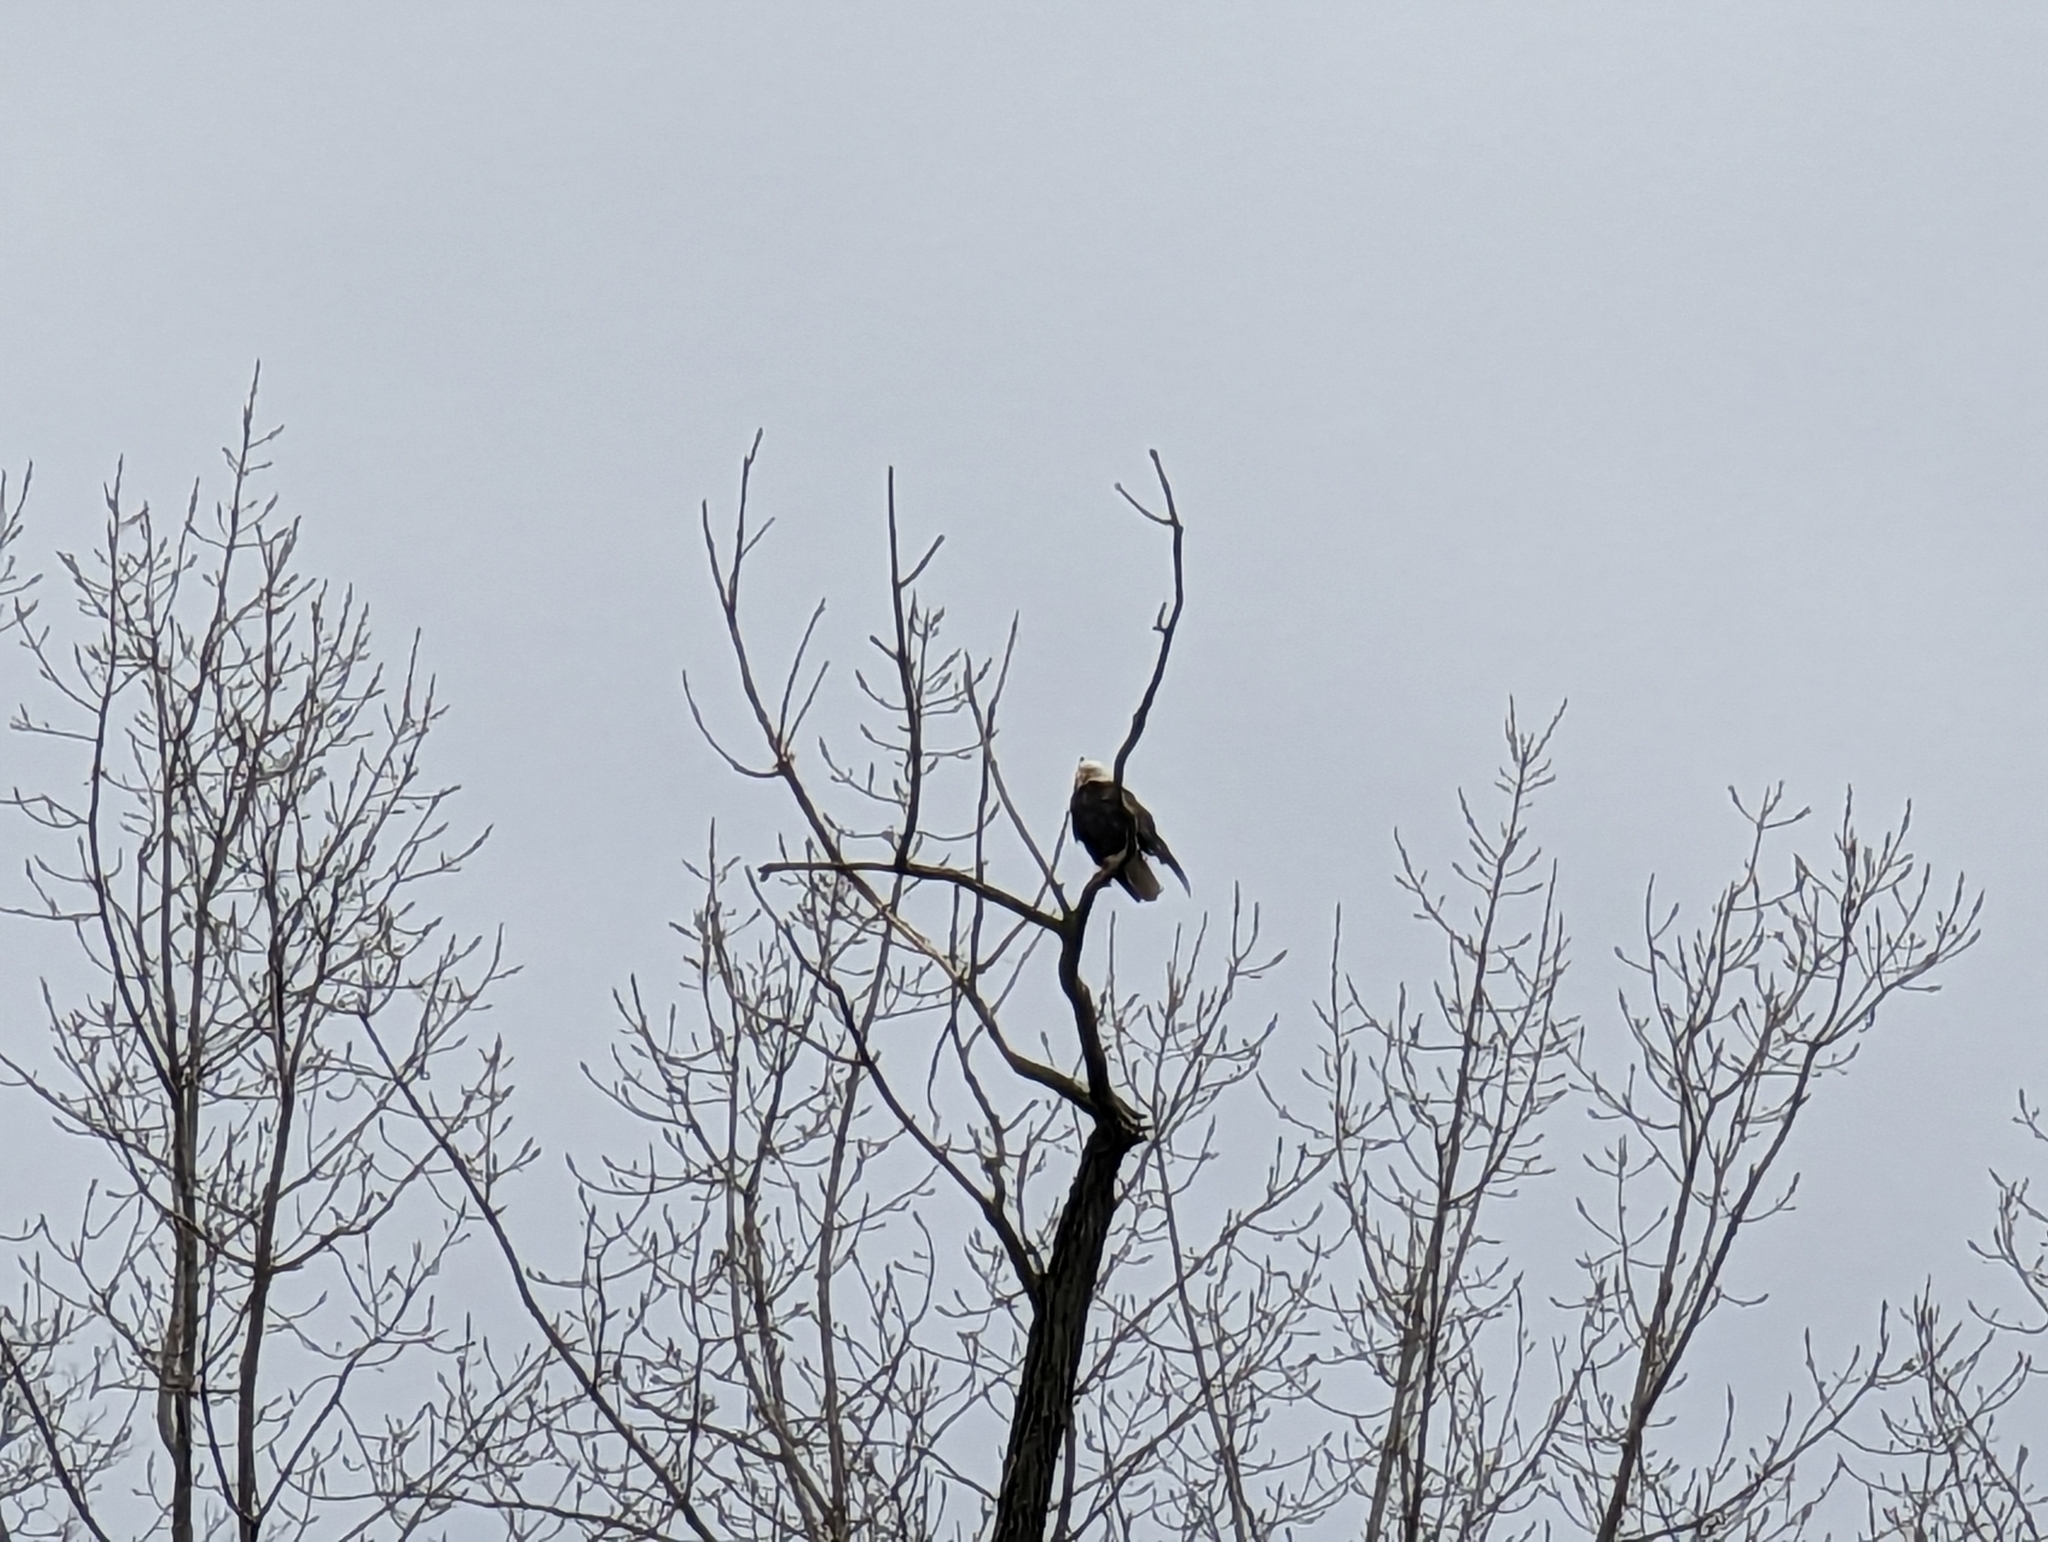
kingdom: Animalia
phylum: Chordata
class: Aves
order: Accipitriformes
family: Accipitridae
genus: Haliaeetus
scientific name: Haliaeetus leucocephalus
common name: Bald eagle
